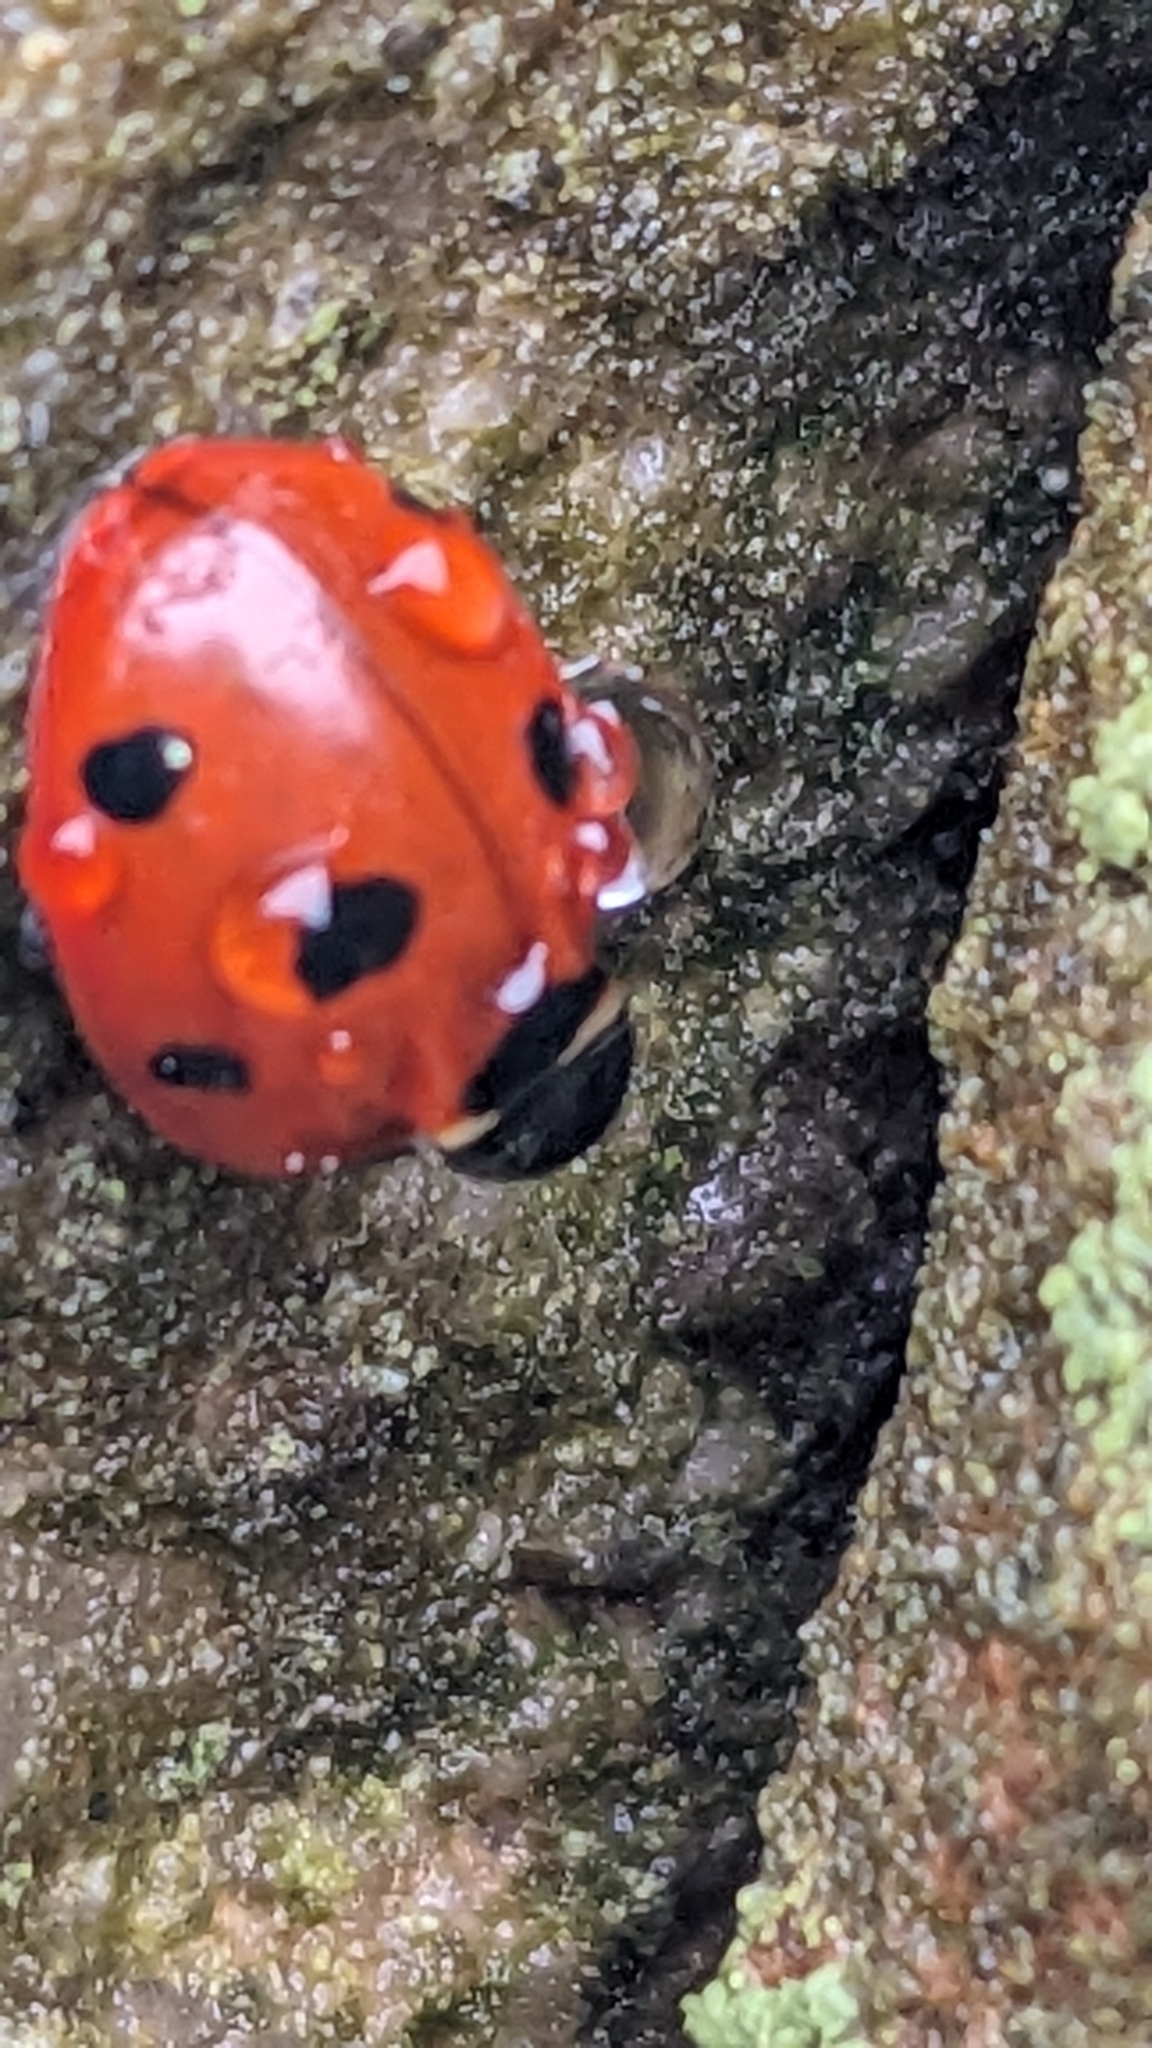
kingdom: Animalia
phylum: Arthropoda
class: Insecta
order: Coleoptera
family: Coccinellidae
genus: Coccinella
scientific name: Coccinella septempunctata
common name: Sevenspotted lady beetle
